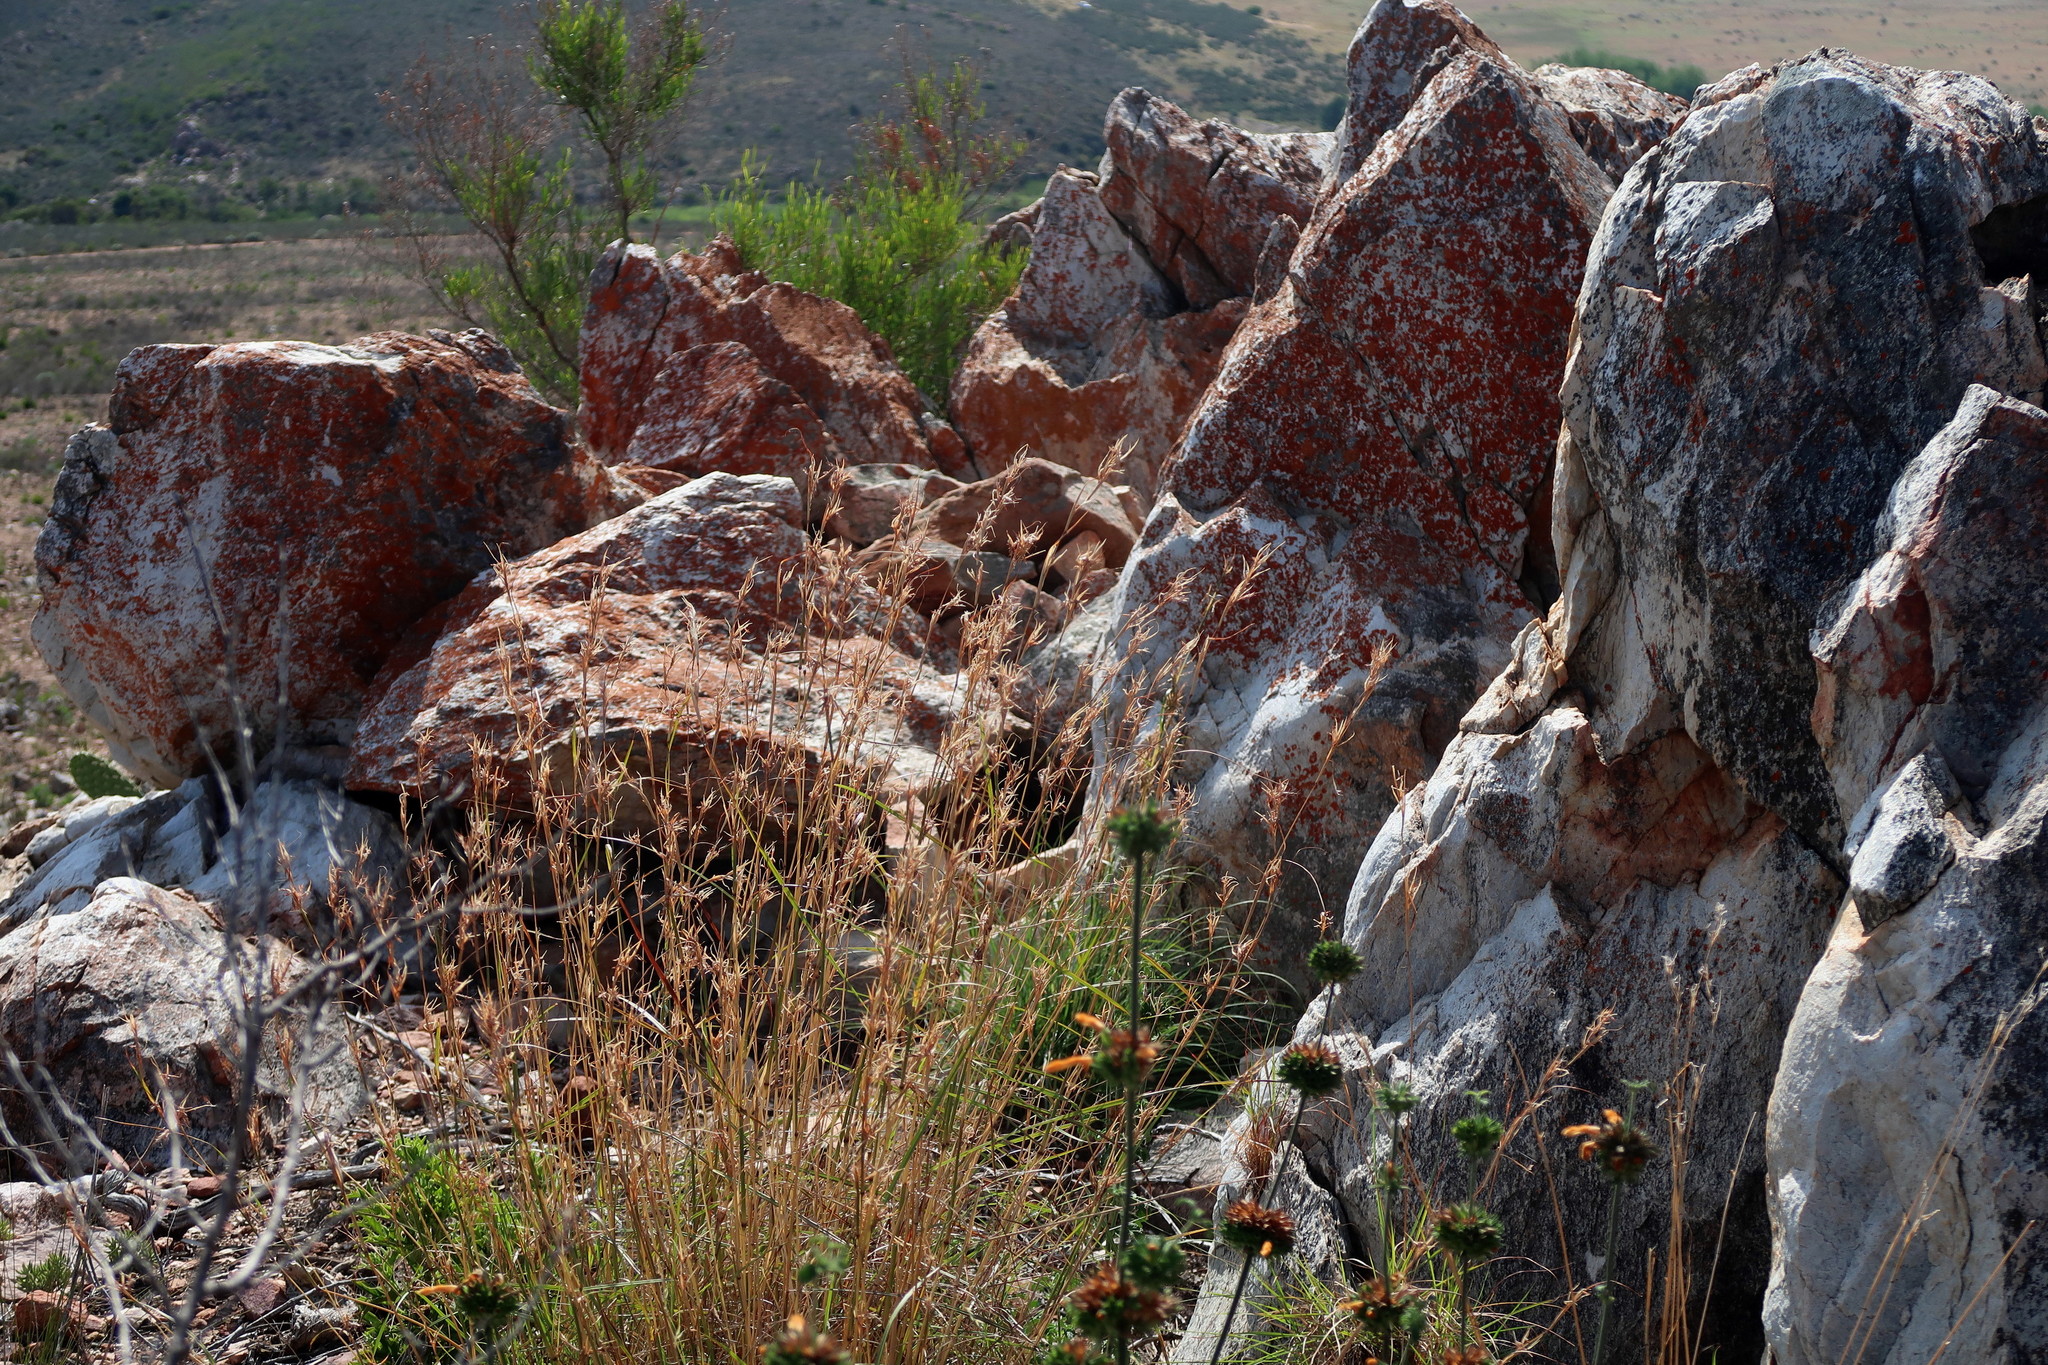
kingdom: Plantae
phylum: Tracheophyta
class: Liliopsida
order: Poales
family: Poaceae
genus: Themeda
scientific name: Themeda triandra
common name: Kangaroo grass
